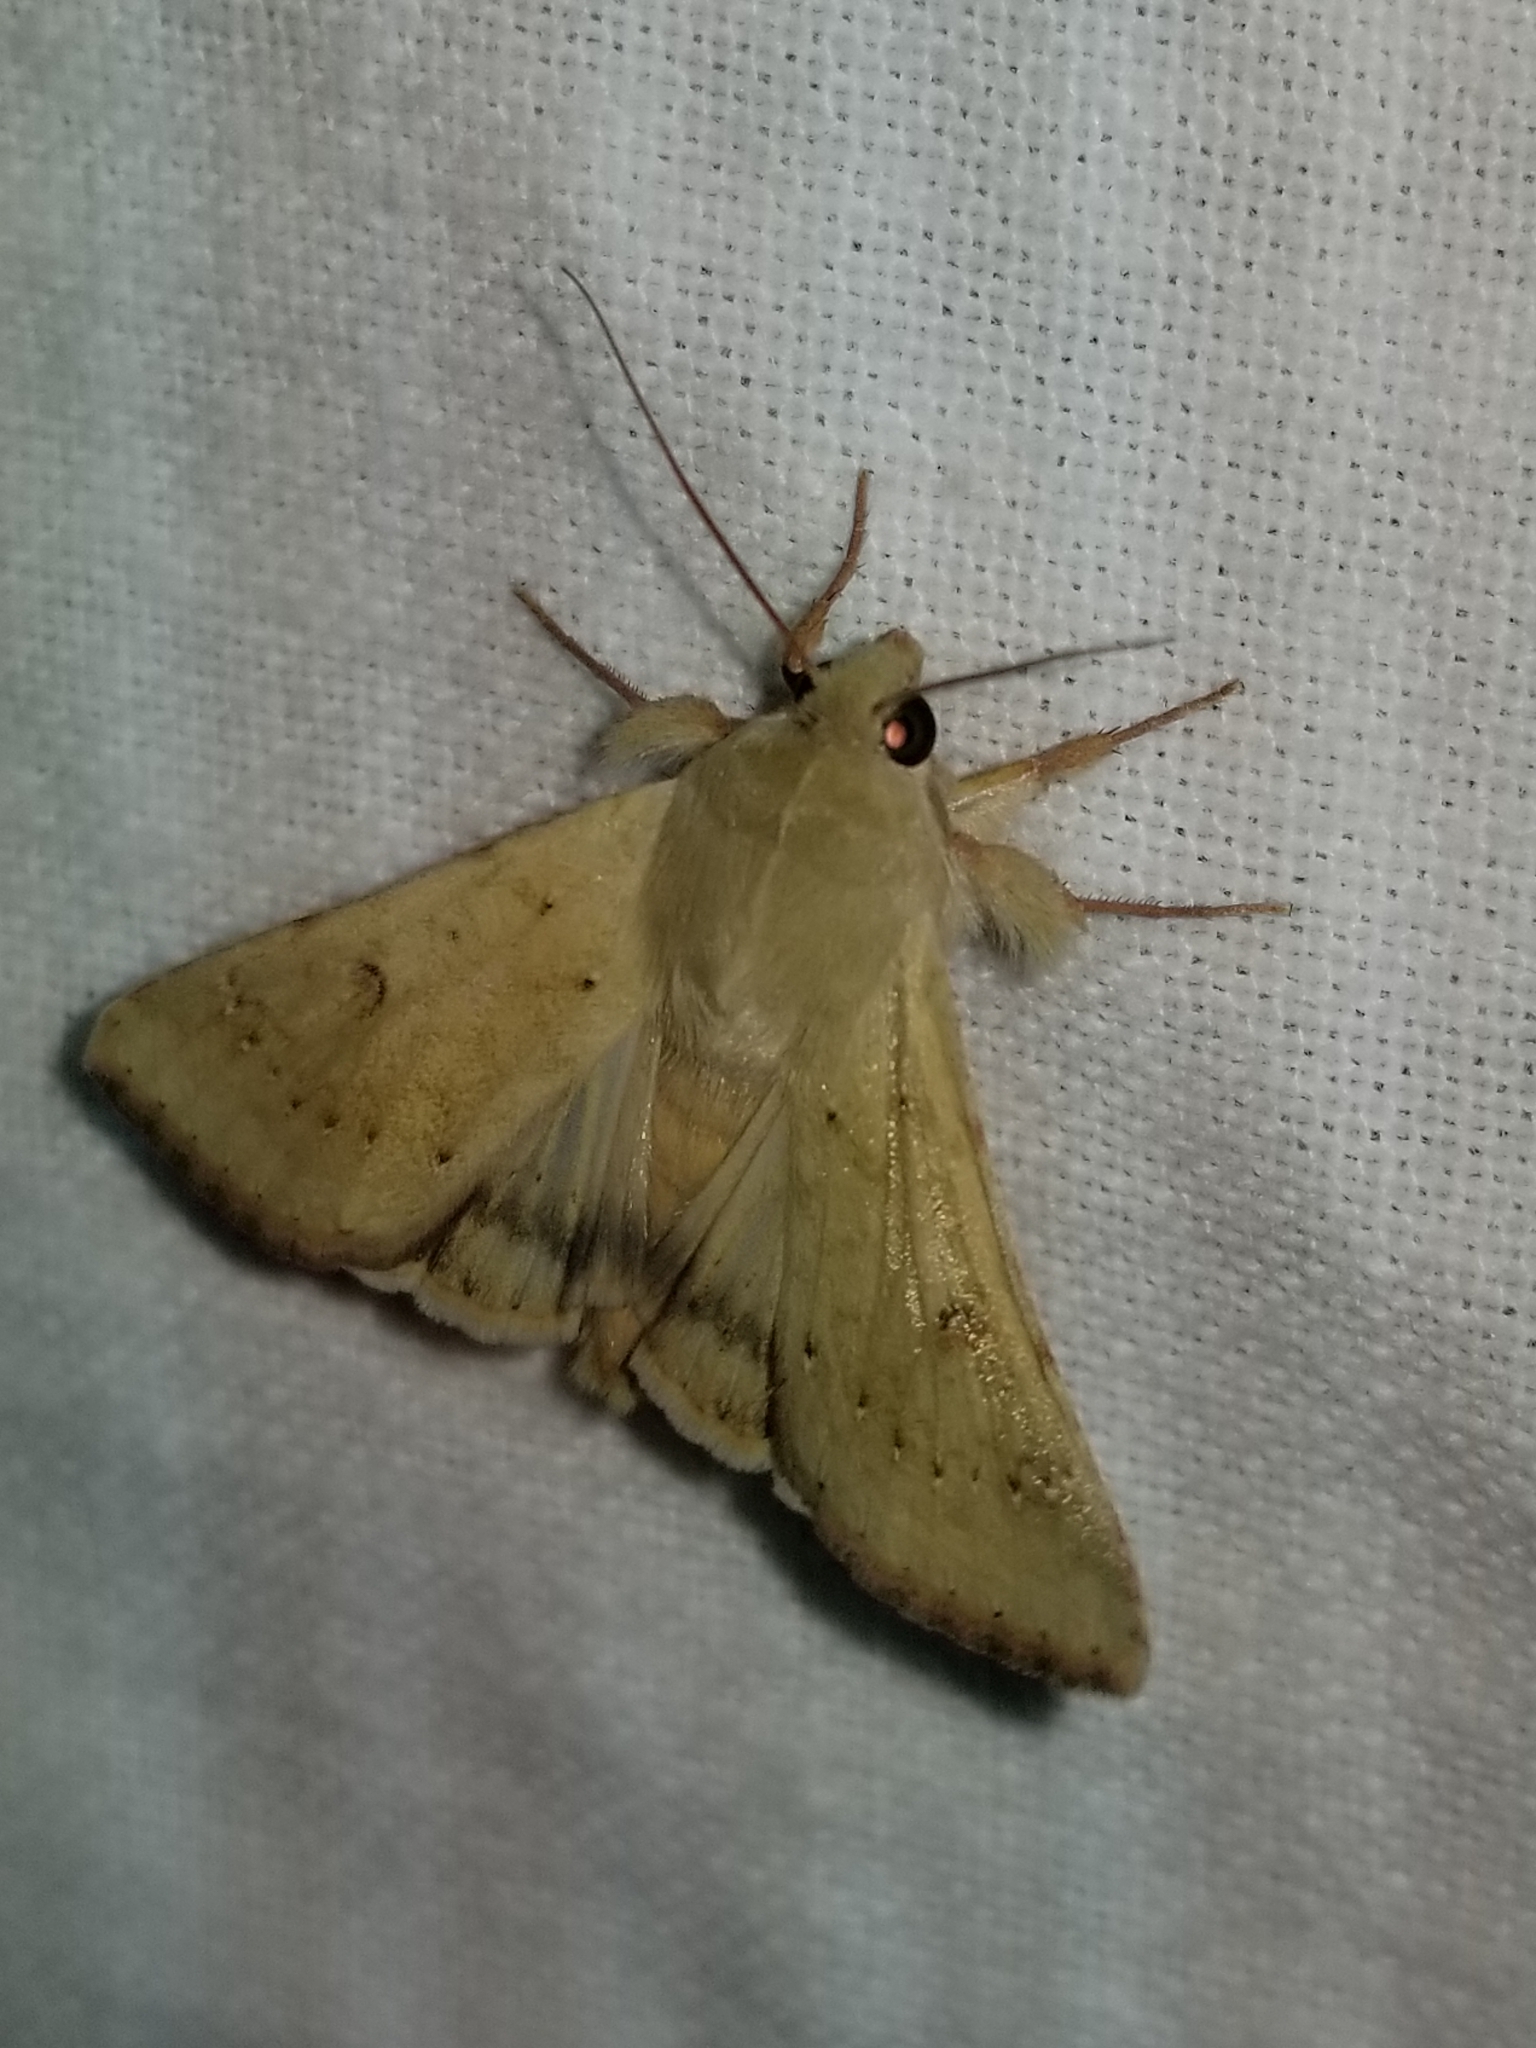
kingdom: Animalia
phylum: Arthropoda
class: Insecta
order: Lepidoptera
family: Noctuidae
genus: Helicoverpa
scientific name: Helicoverpa zea
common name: Bollworm
